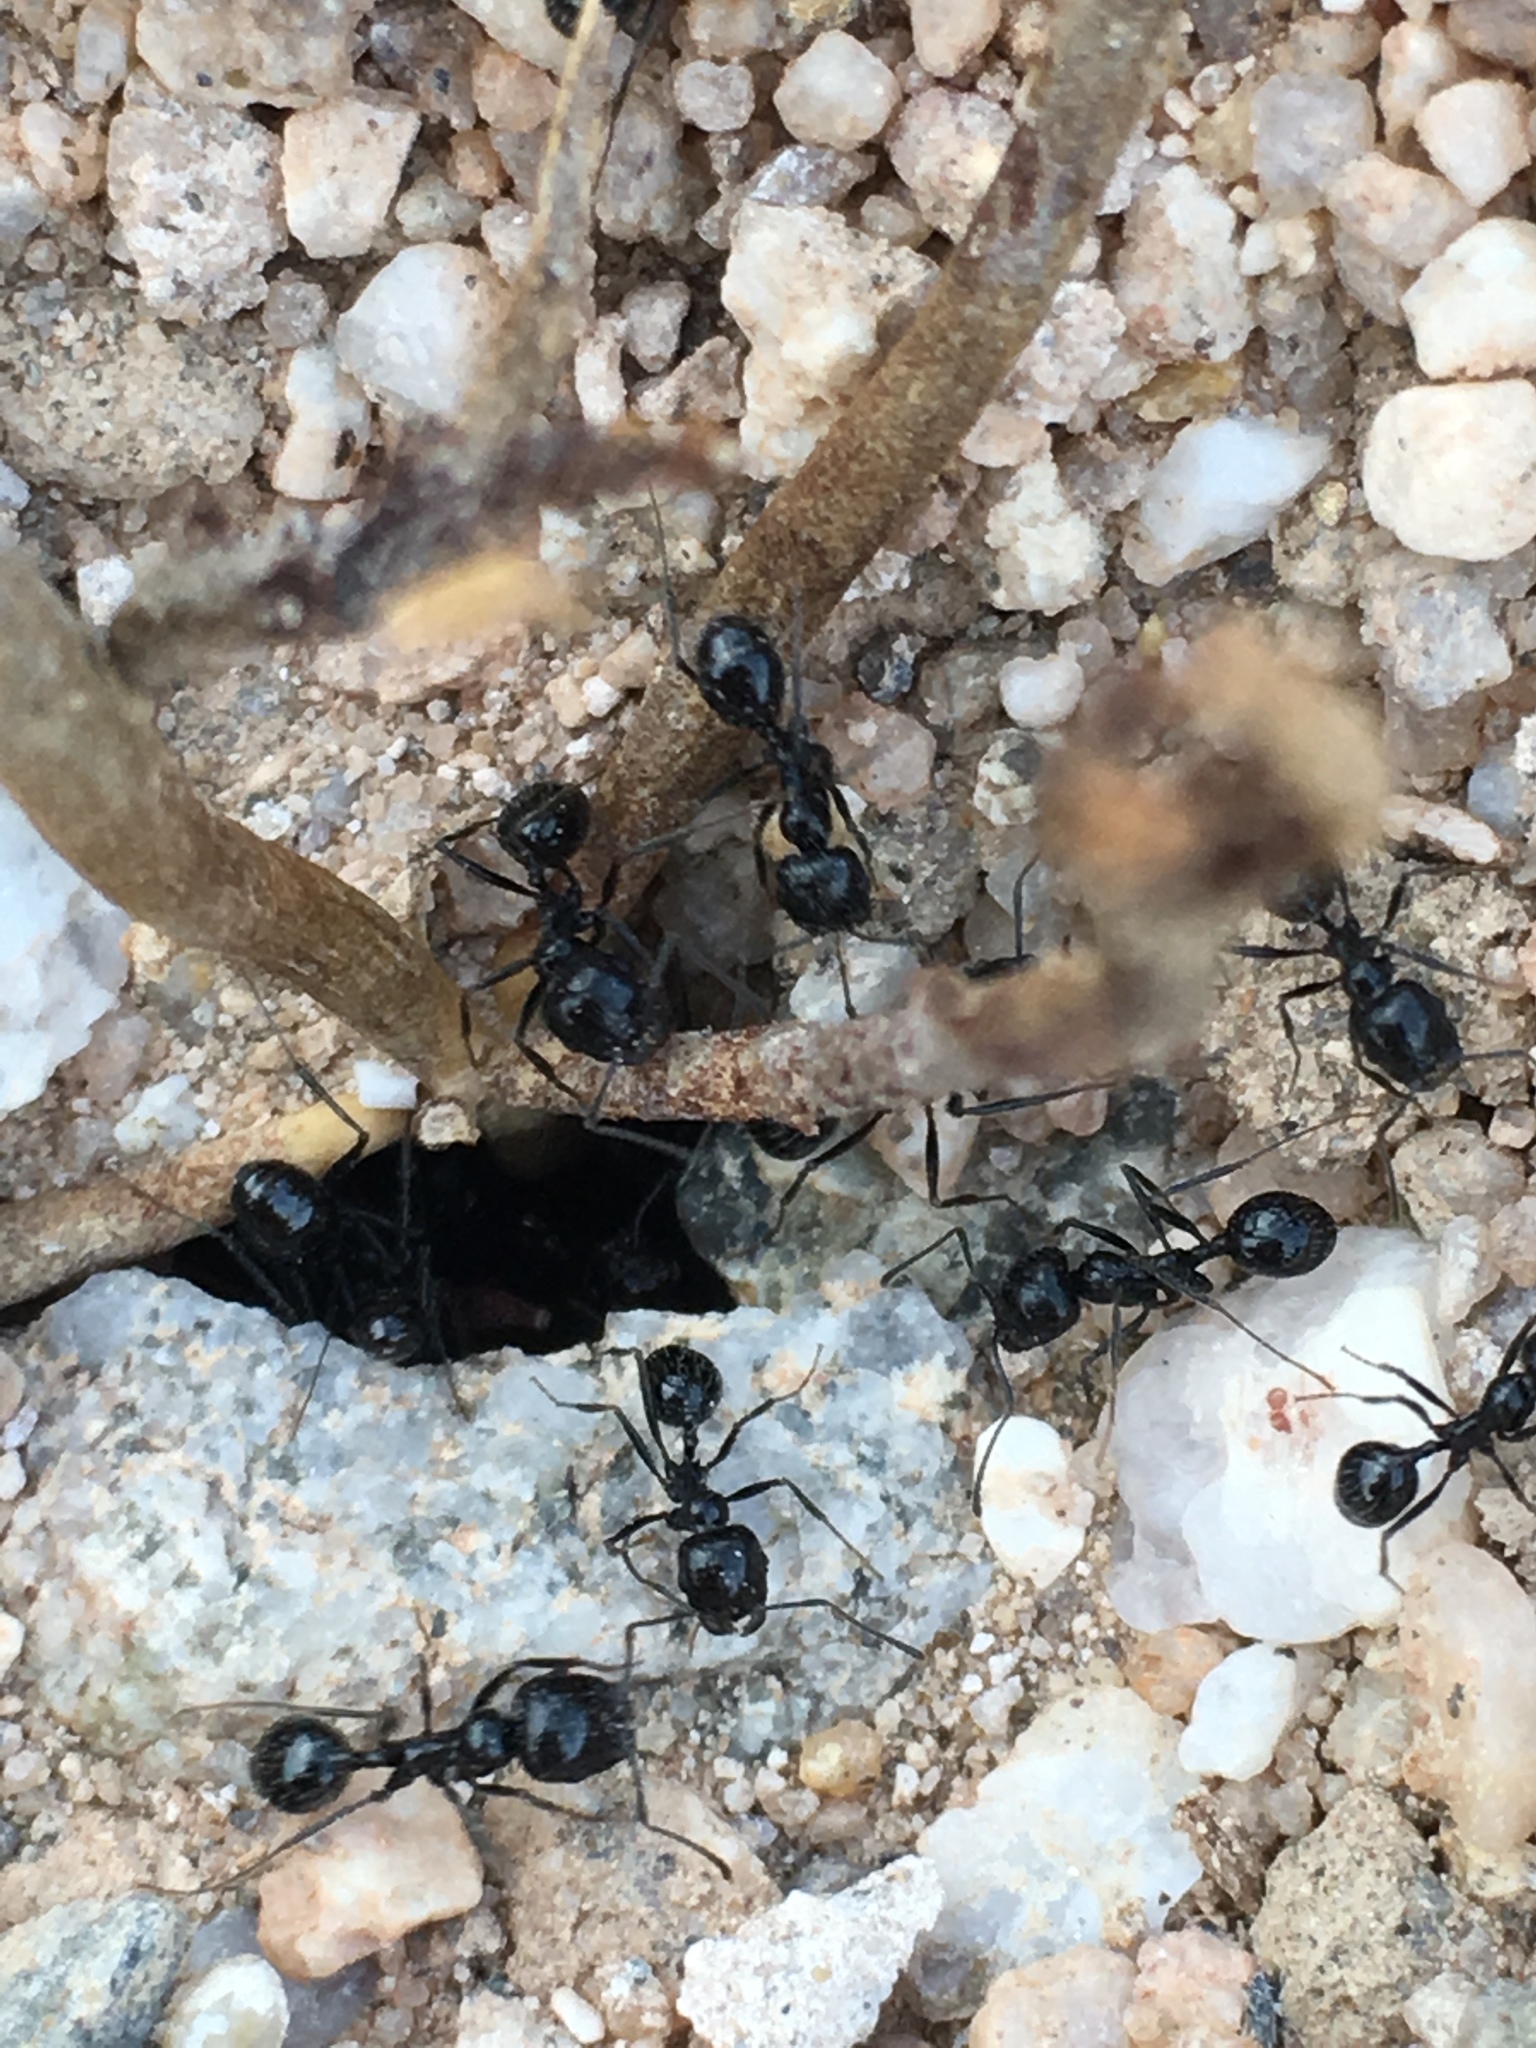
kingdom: Animalia
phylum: Arthropoda
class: Insecta
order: Hymenoptera
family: Formicidae
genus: Messor
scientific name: Messor pergandei
